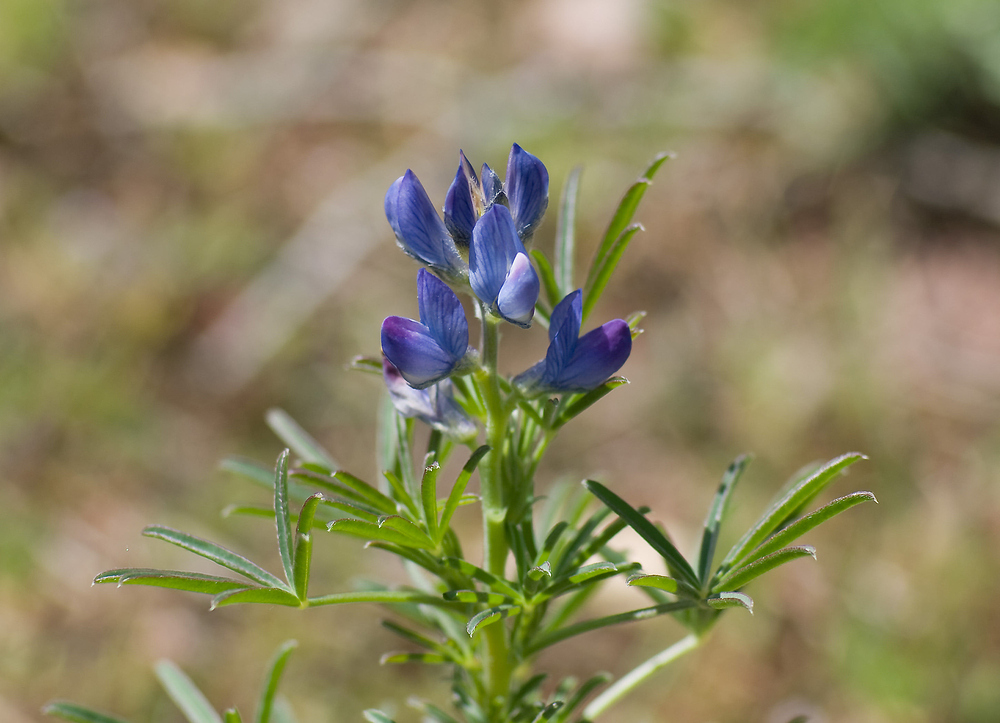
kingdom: Plantae
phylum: Tracheophyta
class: Magnoliopsida
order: Fabales
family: Fabaceae
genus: Lupinus
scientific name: Lupinus angustifolius
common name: Narrow-leaved lupin
